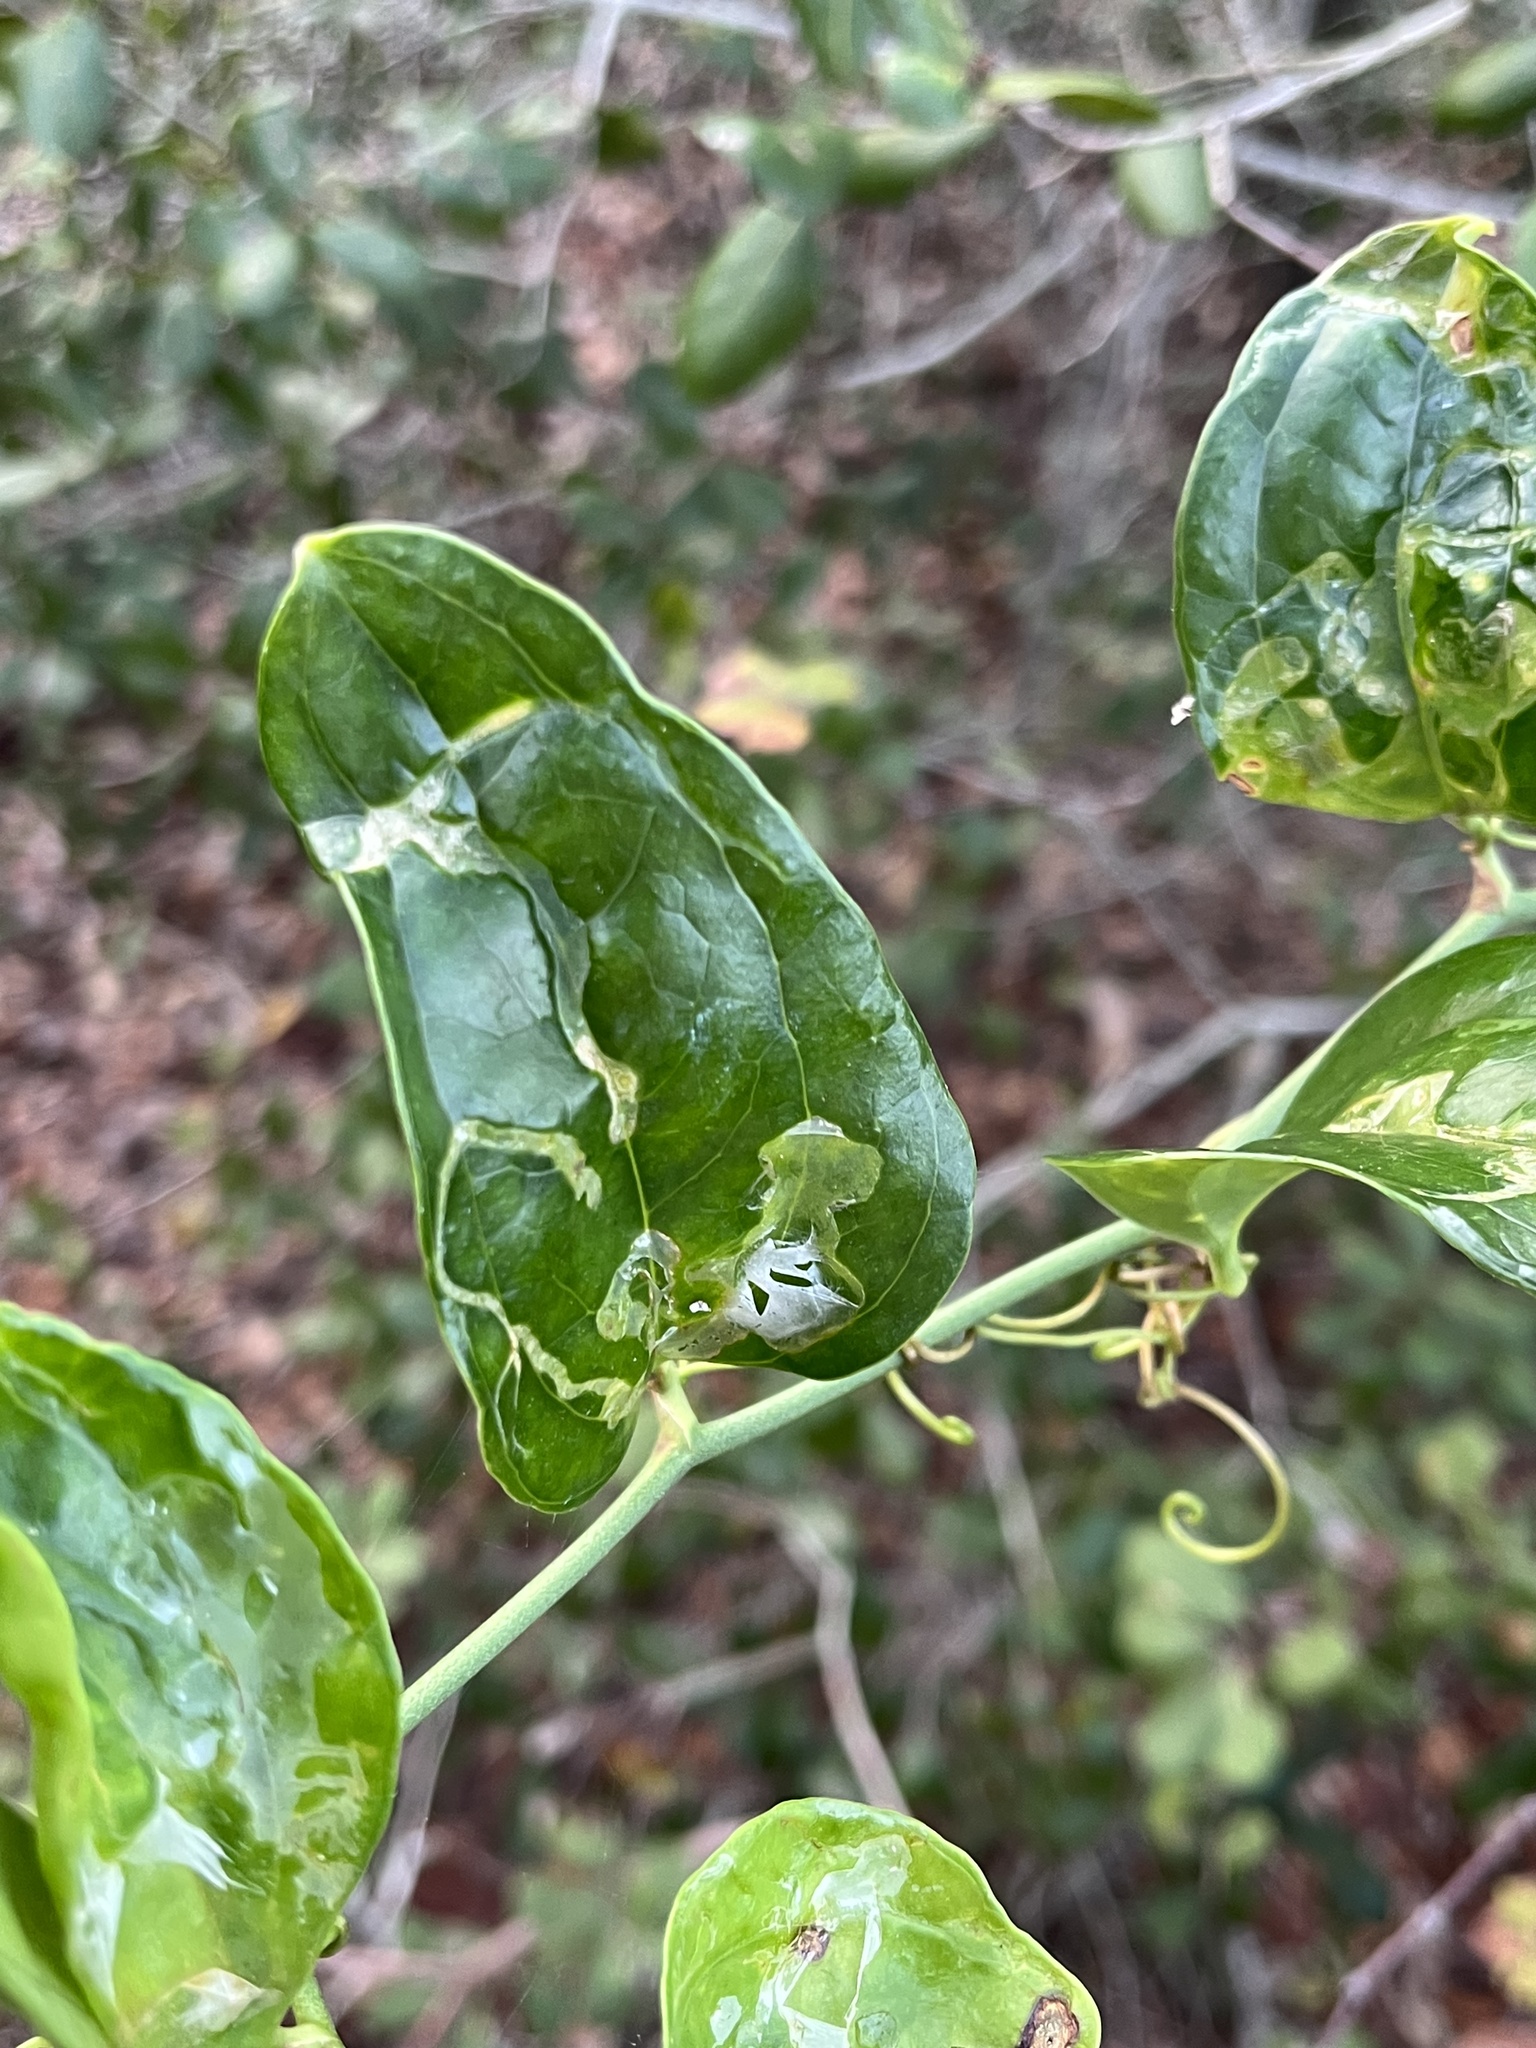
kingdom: Animalia
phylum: Arthropoda
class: Insecta
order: Diptera
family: Agromyzidae
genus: Liriomyza
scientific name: Liriomyza schmidti
